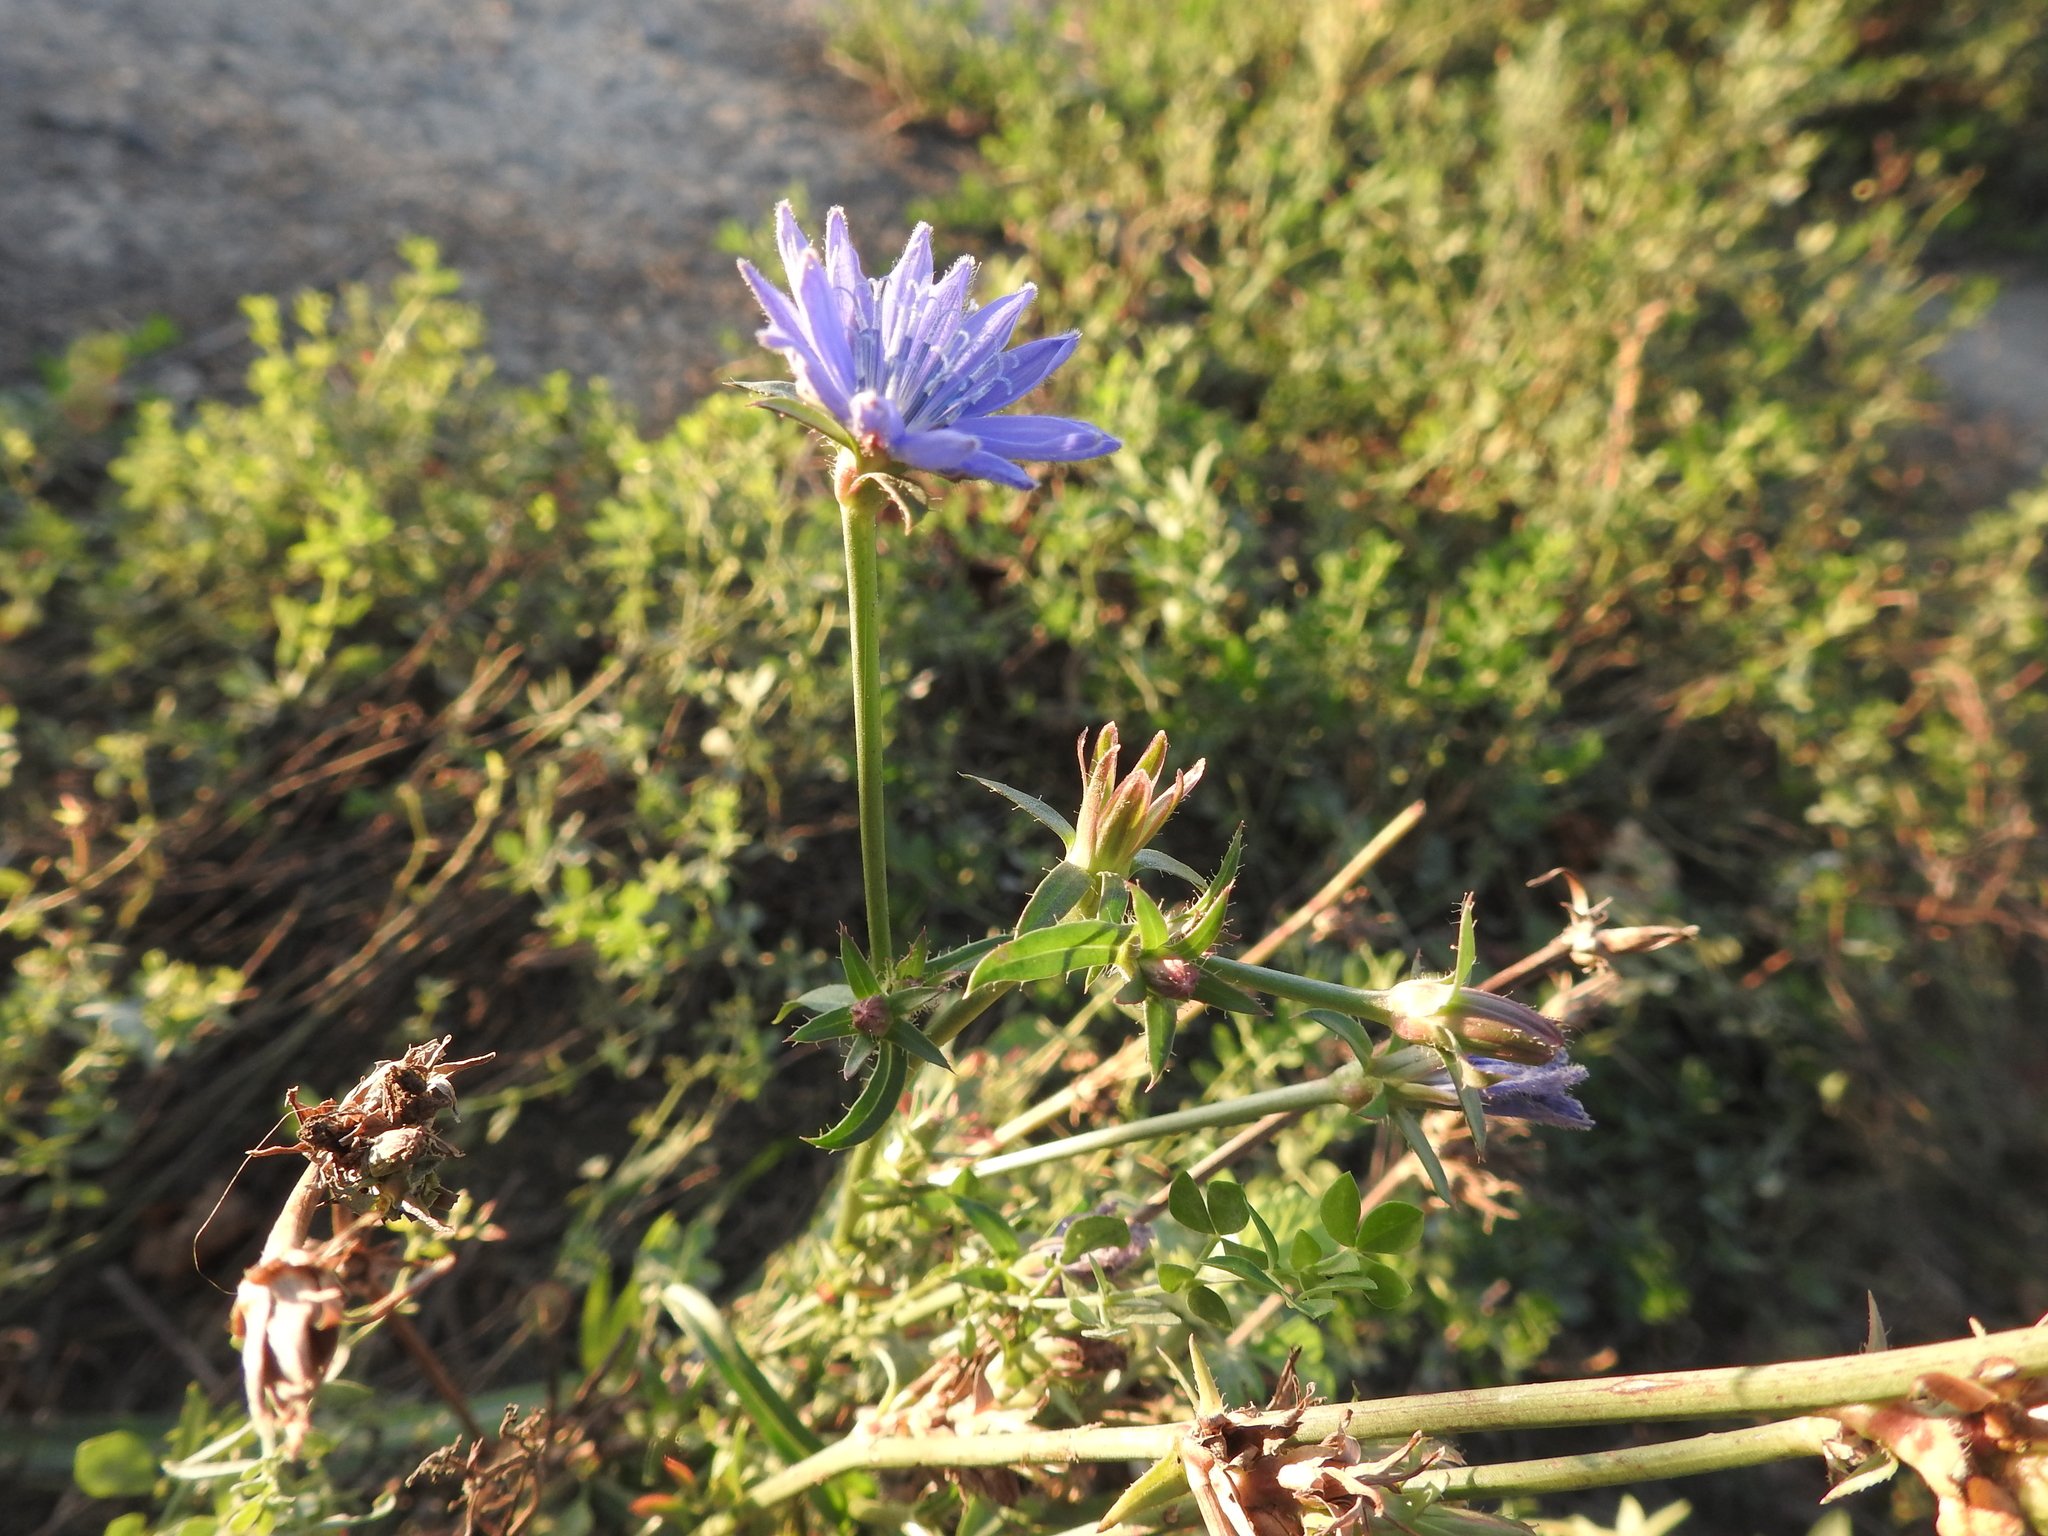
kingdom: Plantae
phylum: Tracheophyta
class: Magnoliopsida
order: Asterales
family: Asteraceae
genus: Cichorium
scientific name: Cichorium intybus
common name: Chicory
